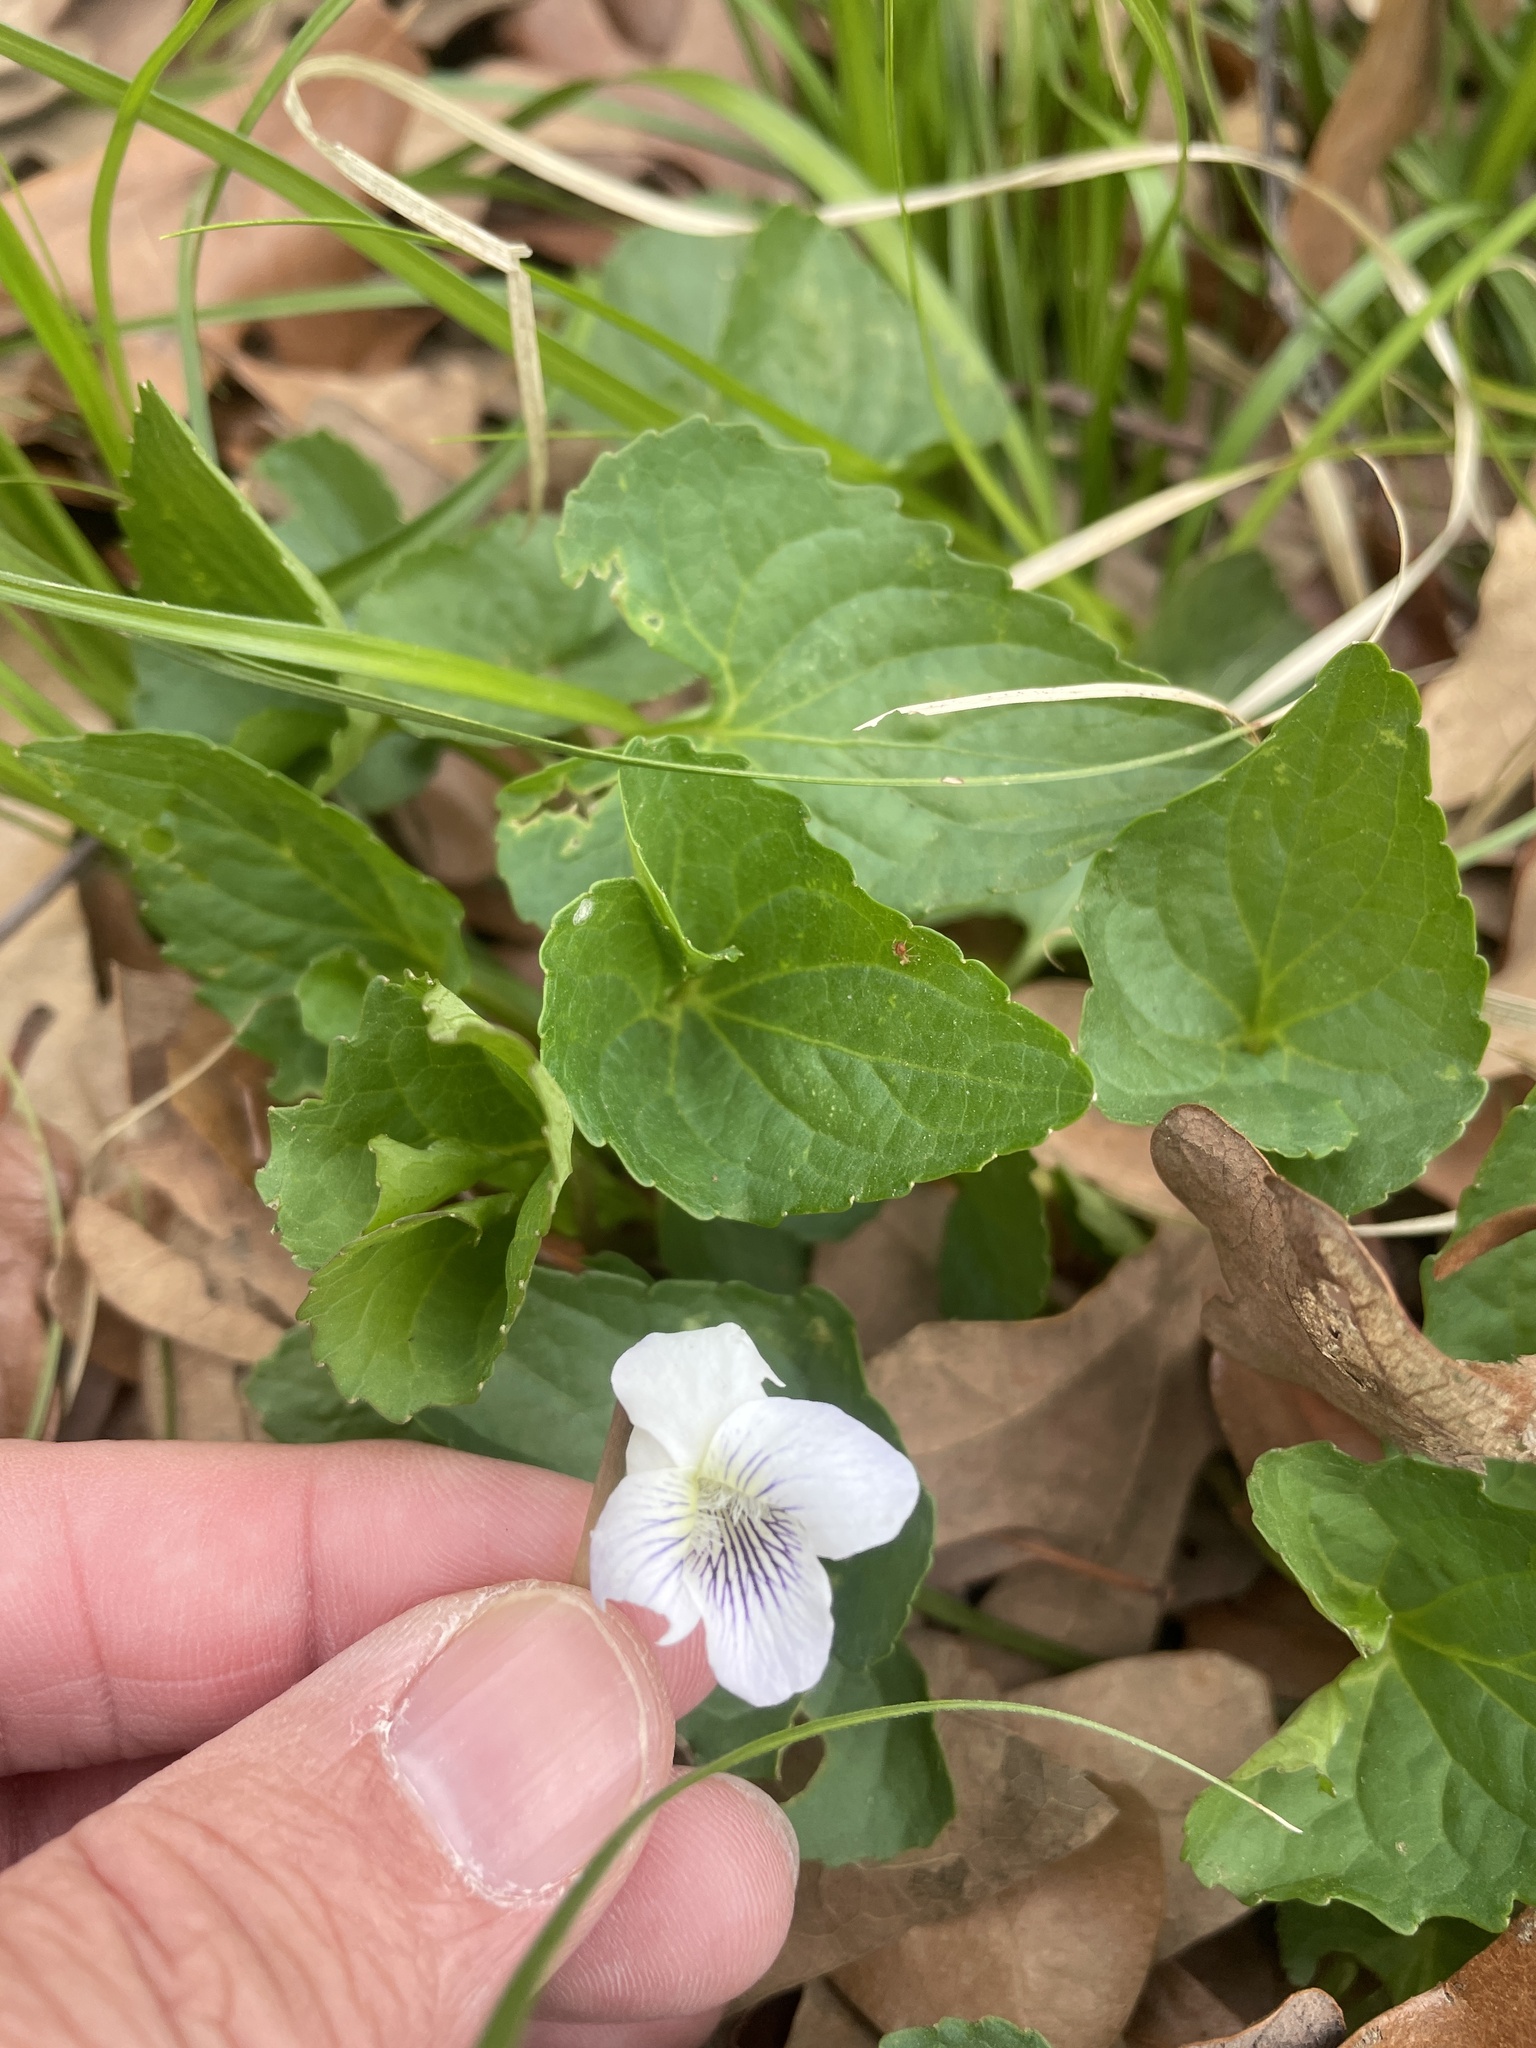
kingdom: Plantae
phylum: Tracheophyta
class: Magnoliopsida
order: Malpighiales
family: Violaceae
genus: Viola
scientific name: Viola missouriensis
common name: Missouri violet
